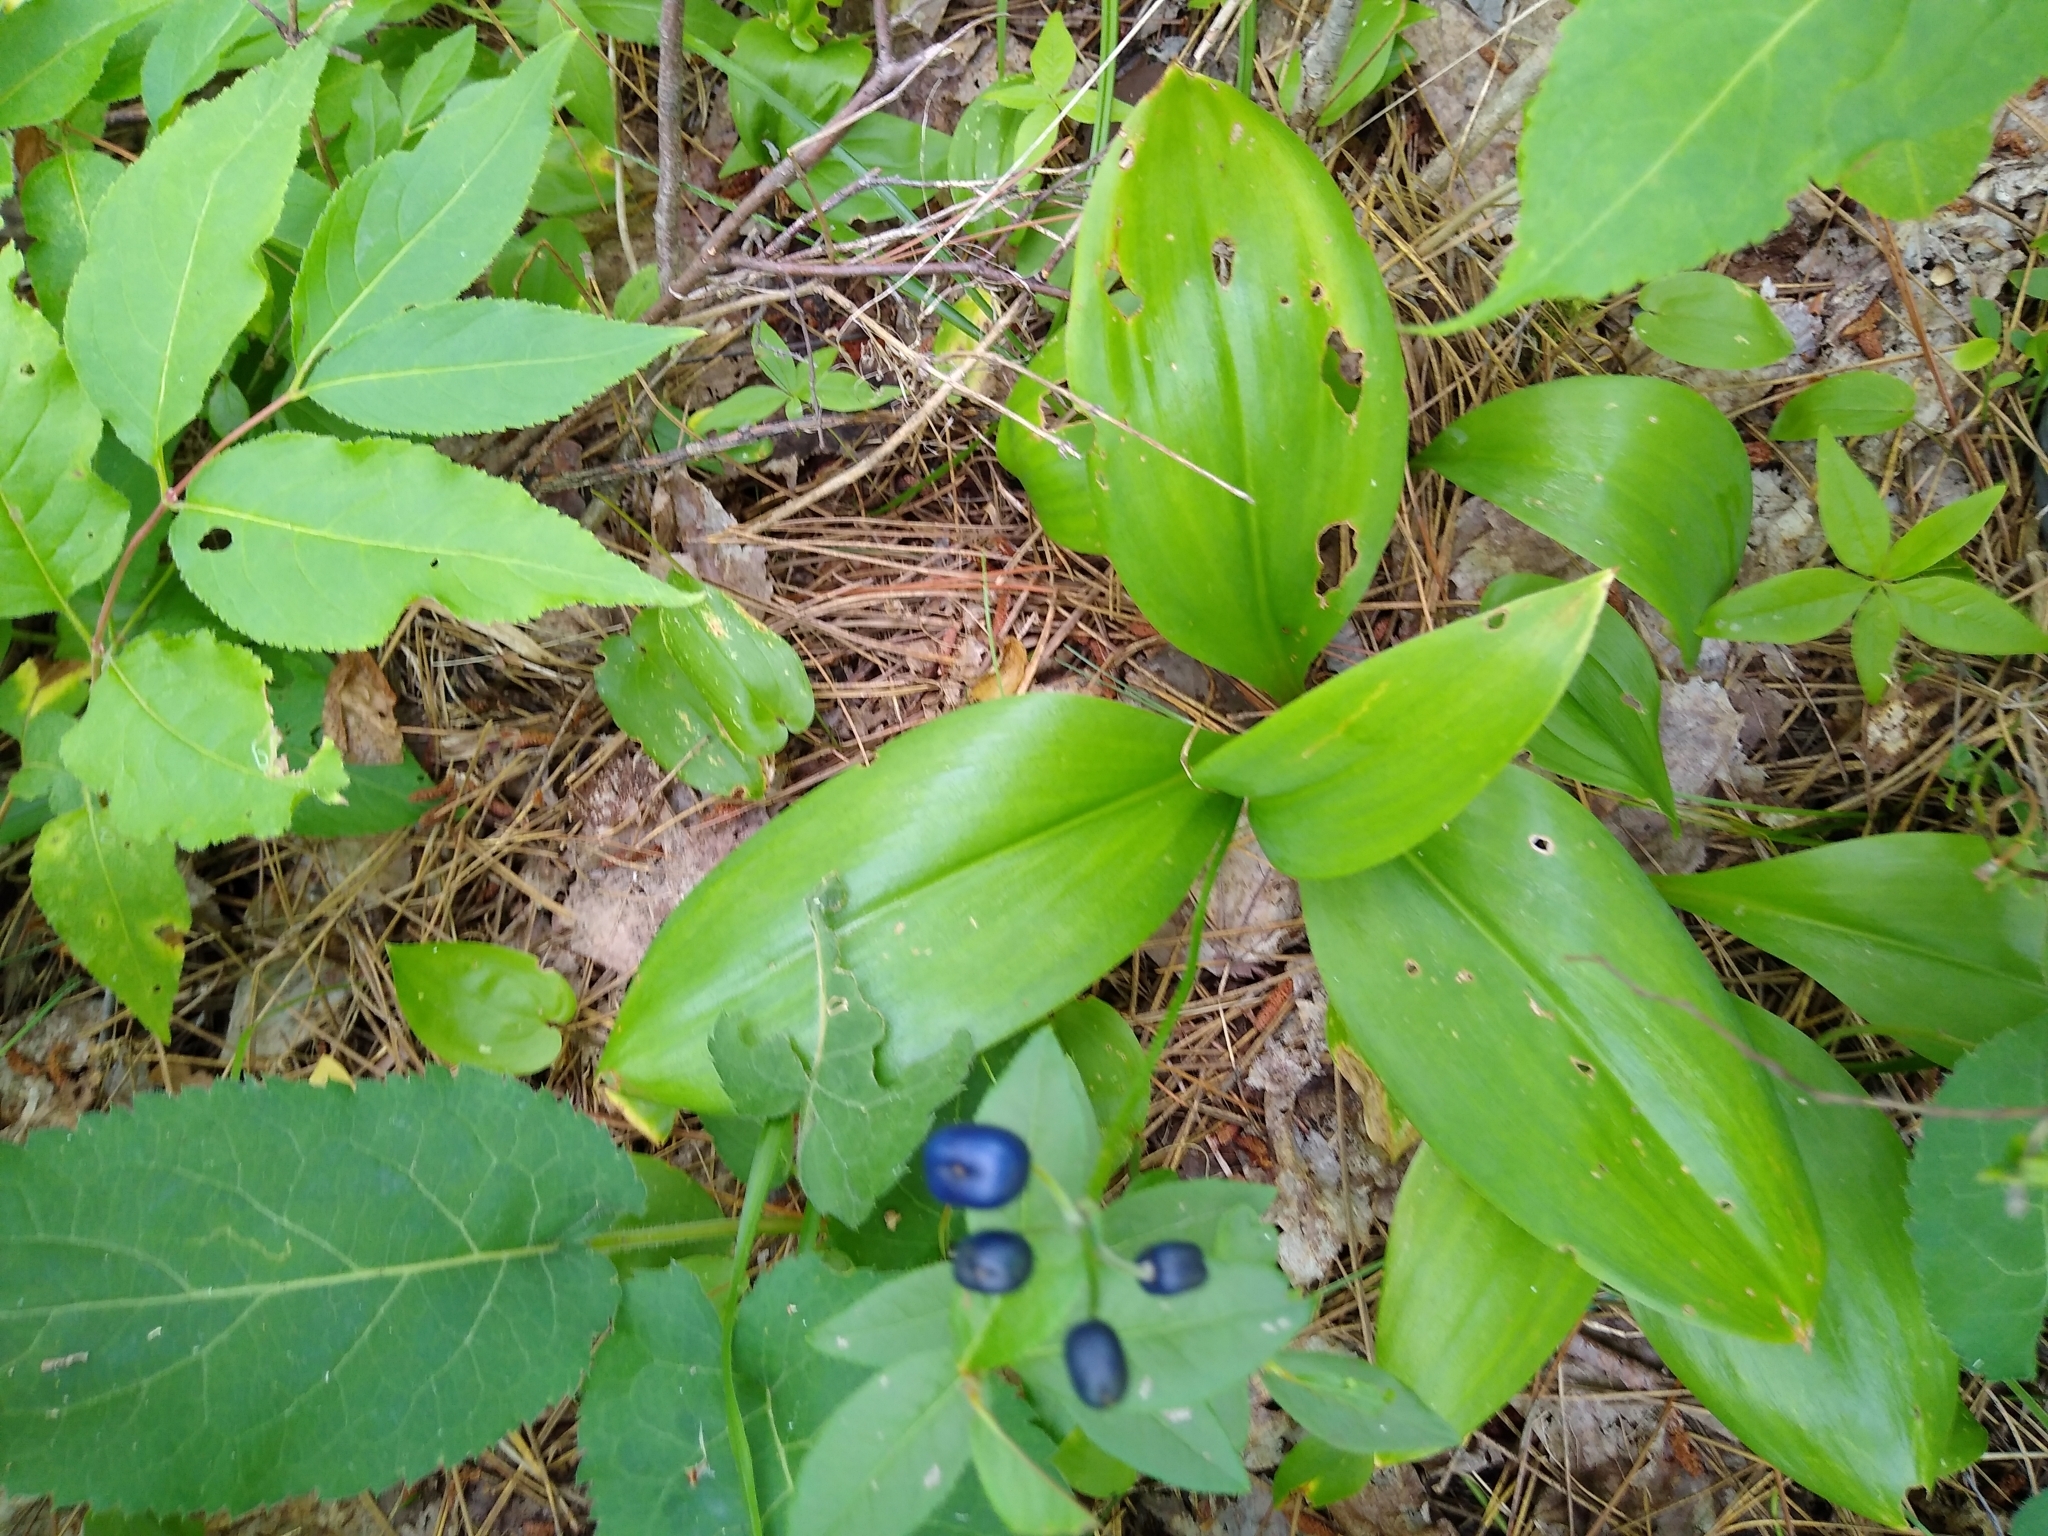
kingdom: Plantae
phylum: Tracheophyta
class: Liliopsida
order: Liliales
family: Liliaceae
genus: Clintonia
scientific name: Clintonia borealis
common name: Yellow clintonia
